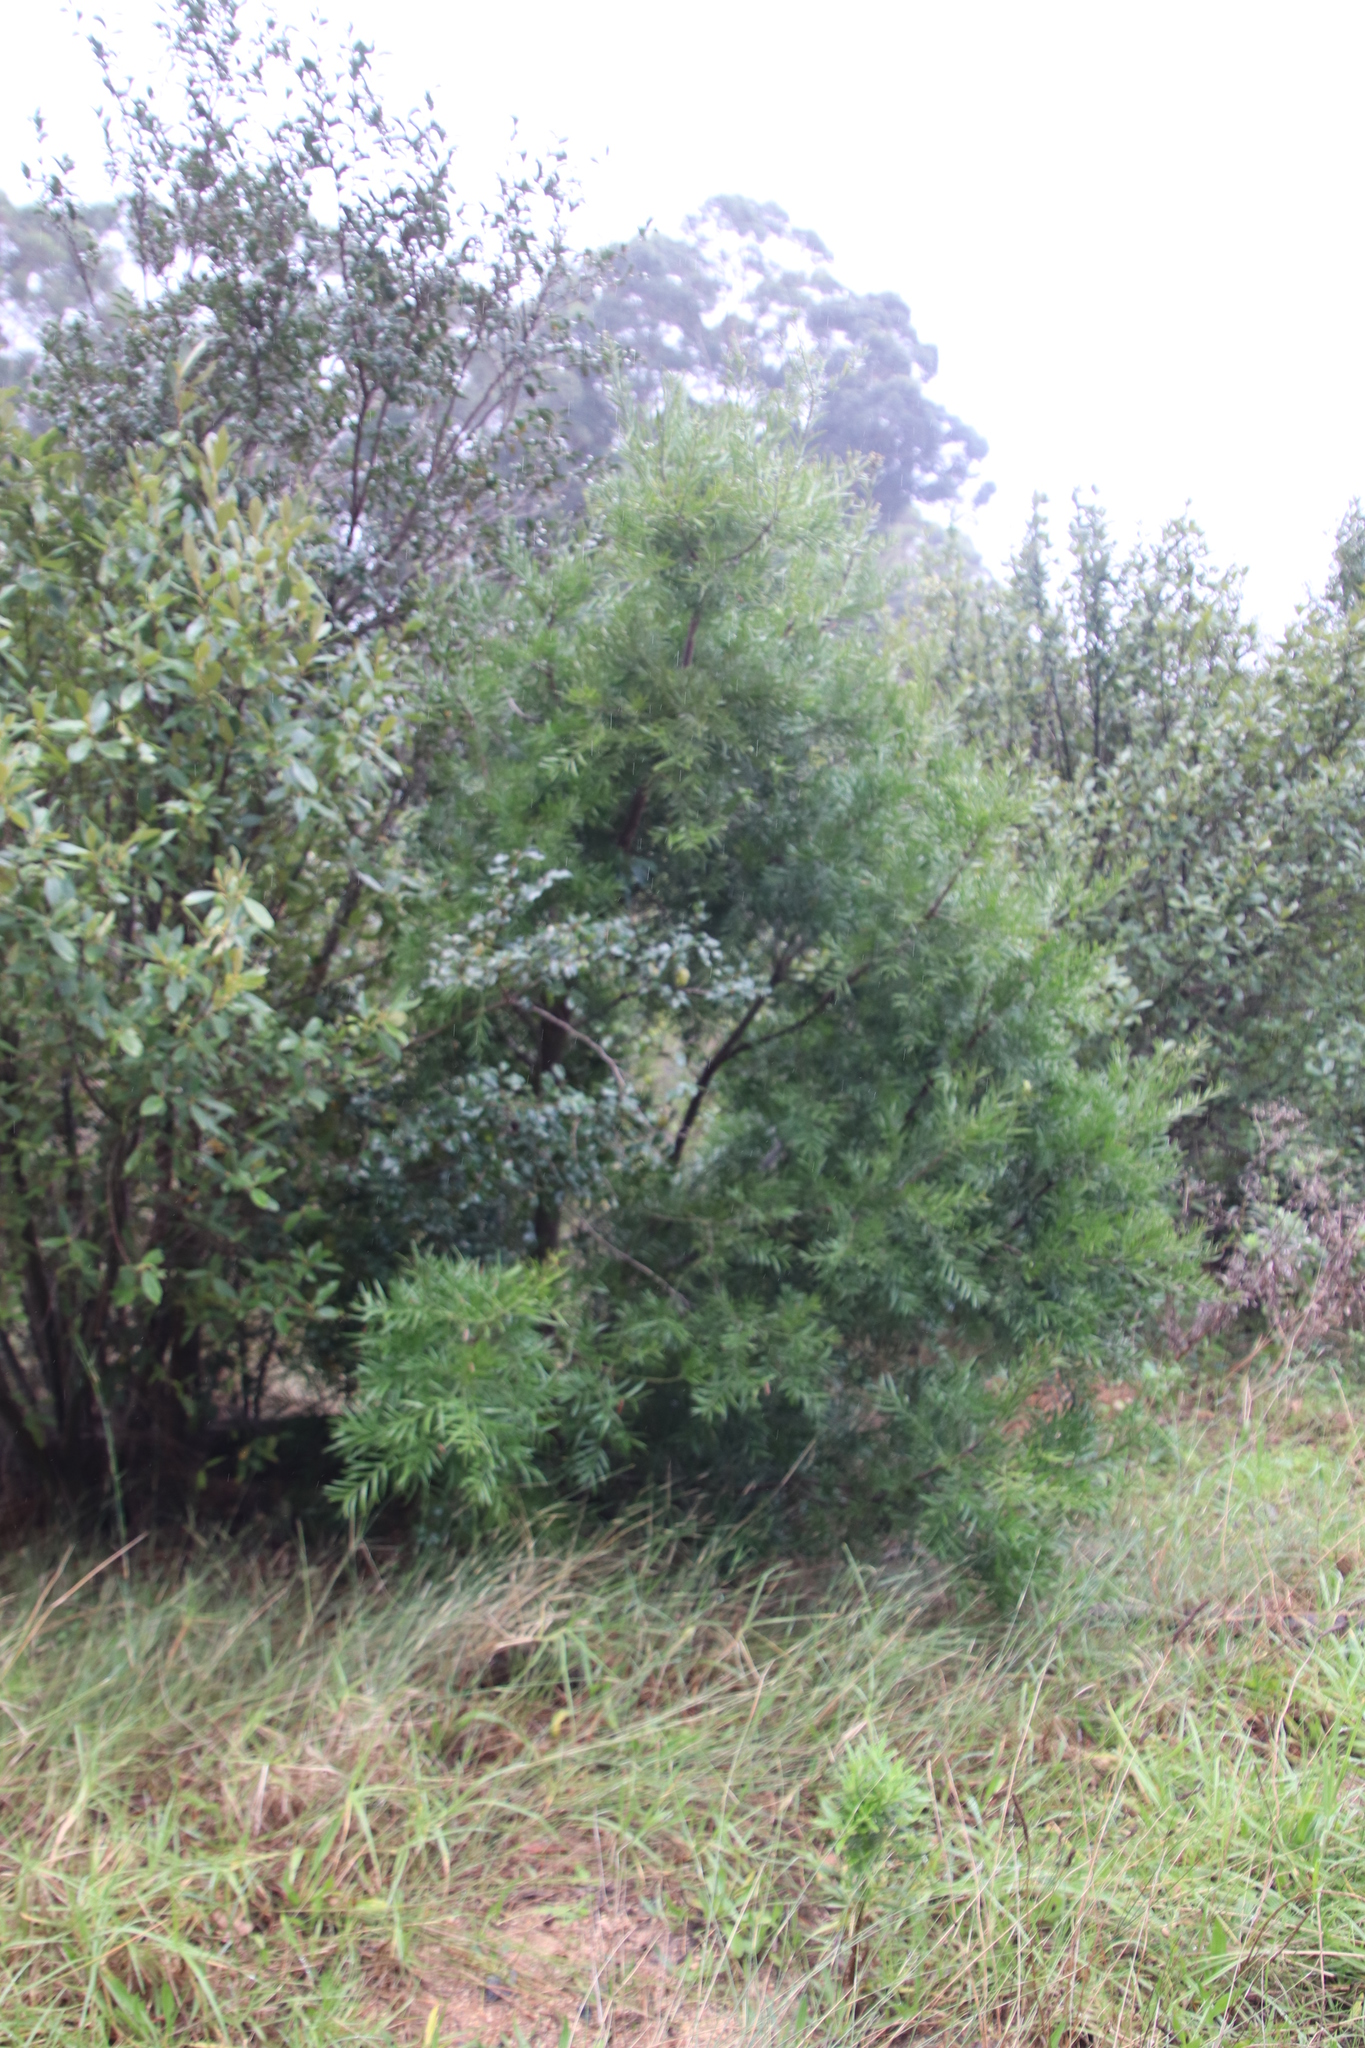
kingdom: Plantae
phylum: Tracheophyta
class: Pinopsida
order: Pinales
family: Podocarpaceae
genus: Afrocarpus
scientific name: Afrocarpus falcatus
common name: Bastard yellowwood
